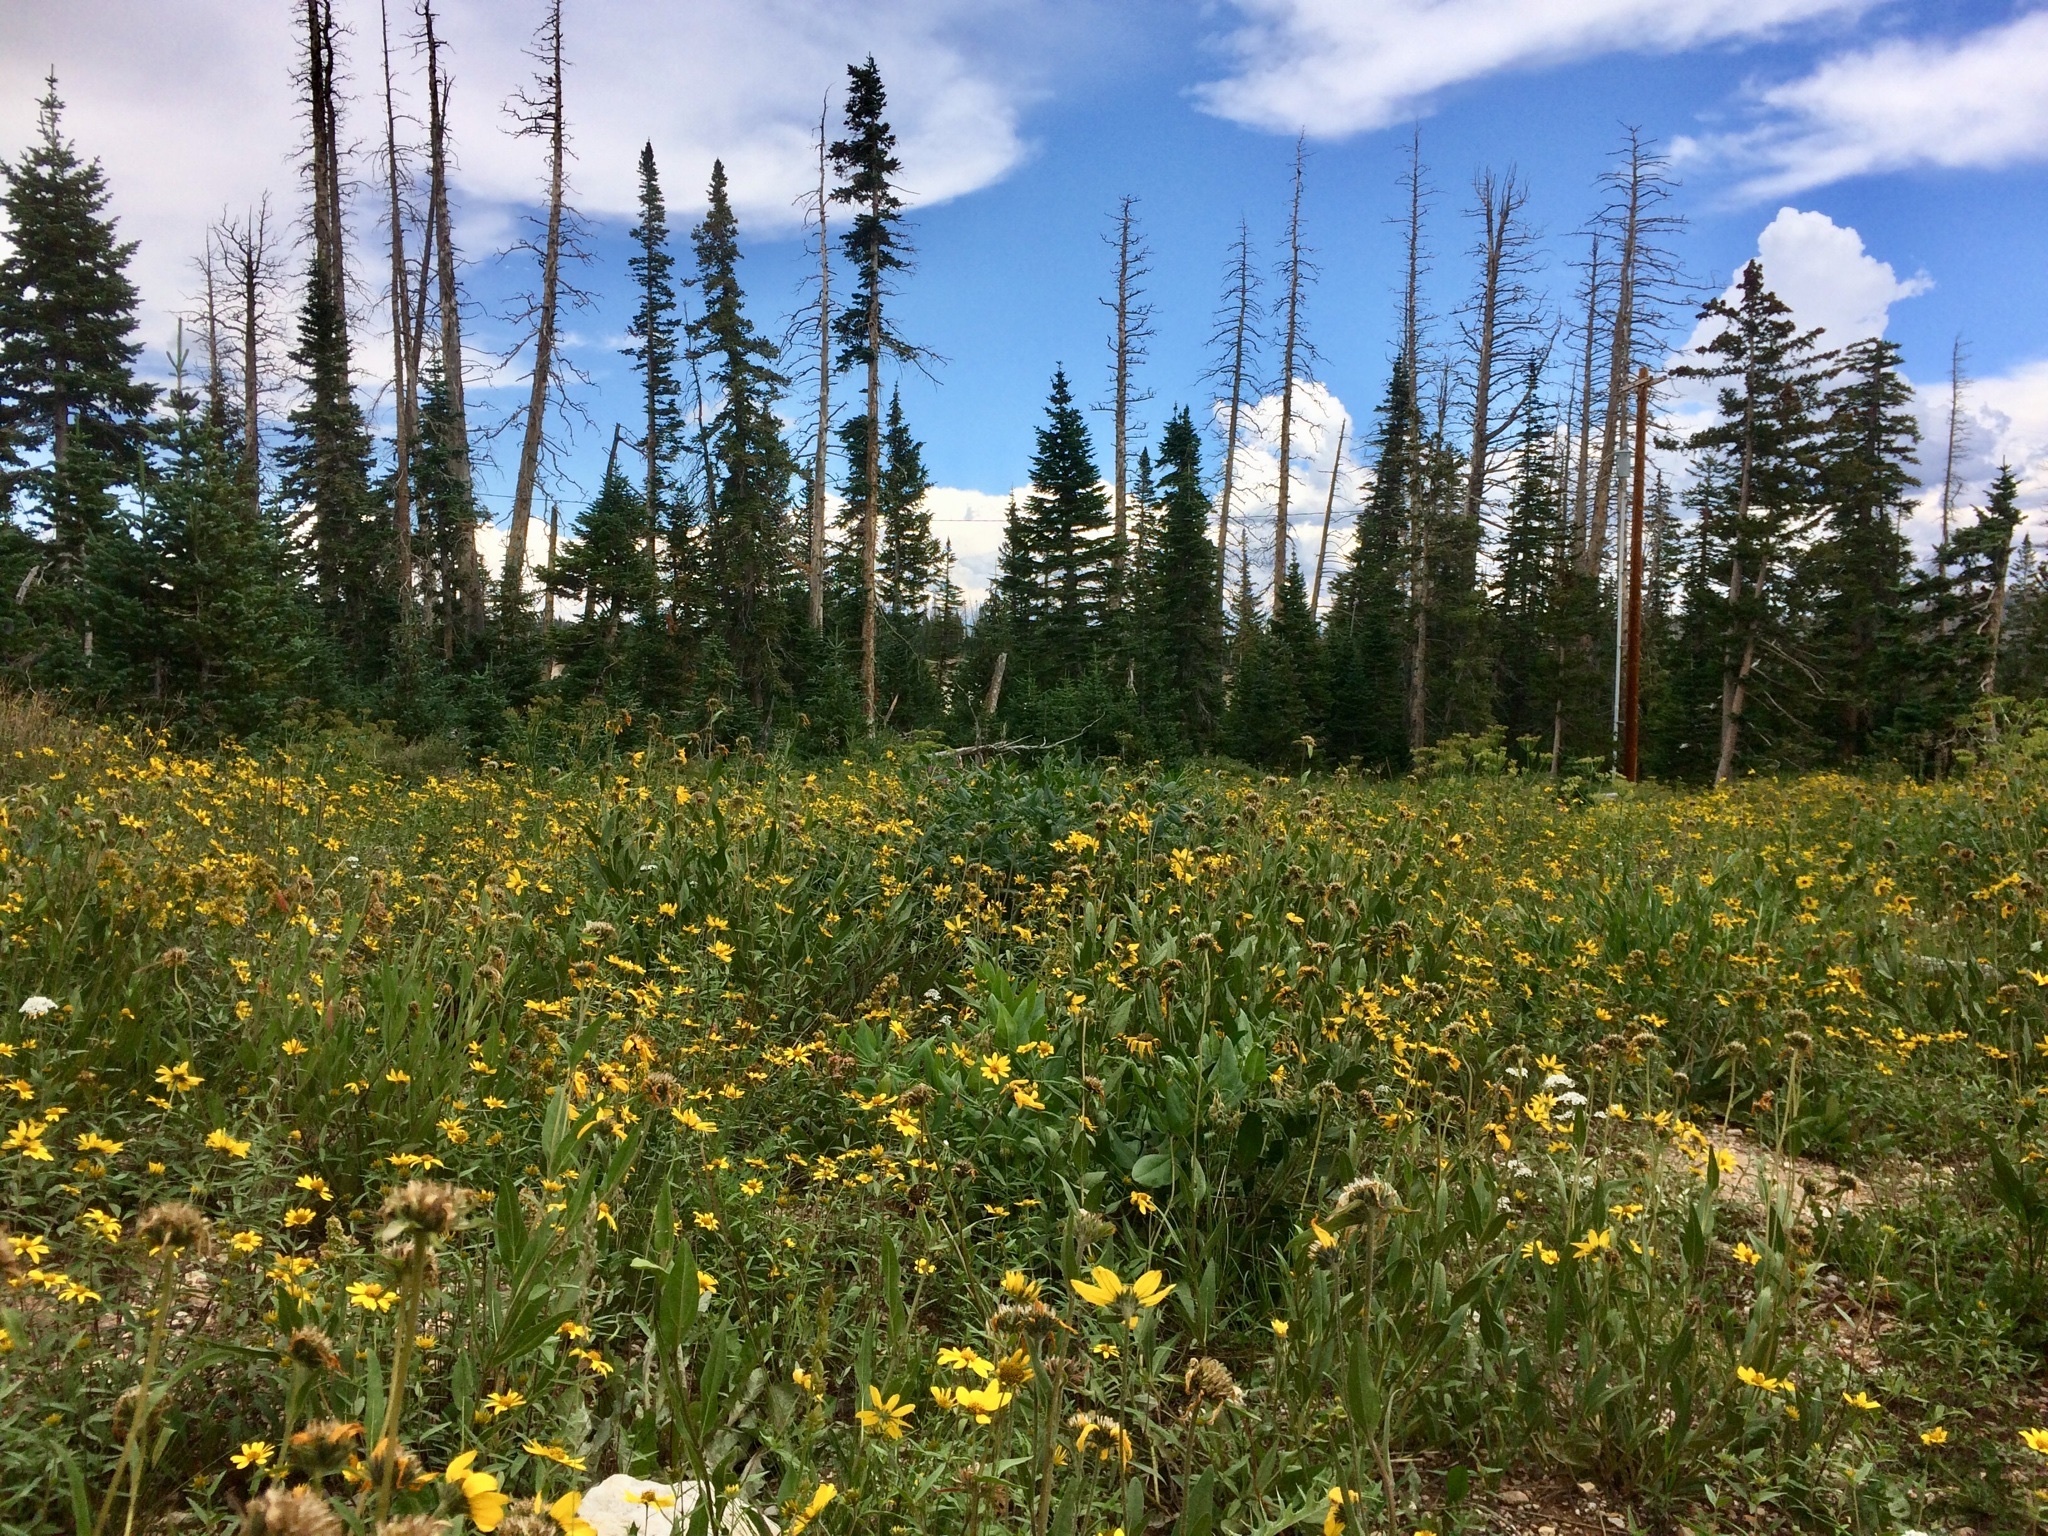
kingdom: Plantae
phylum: Tracheophyta
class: Magnoliopsida
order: Asterales
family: Asteraceae
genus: Helianthella
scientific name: Helianthella uniflora
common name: Rocky mountain dwarf sunflower
